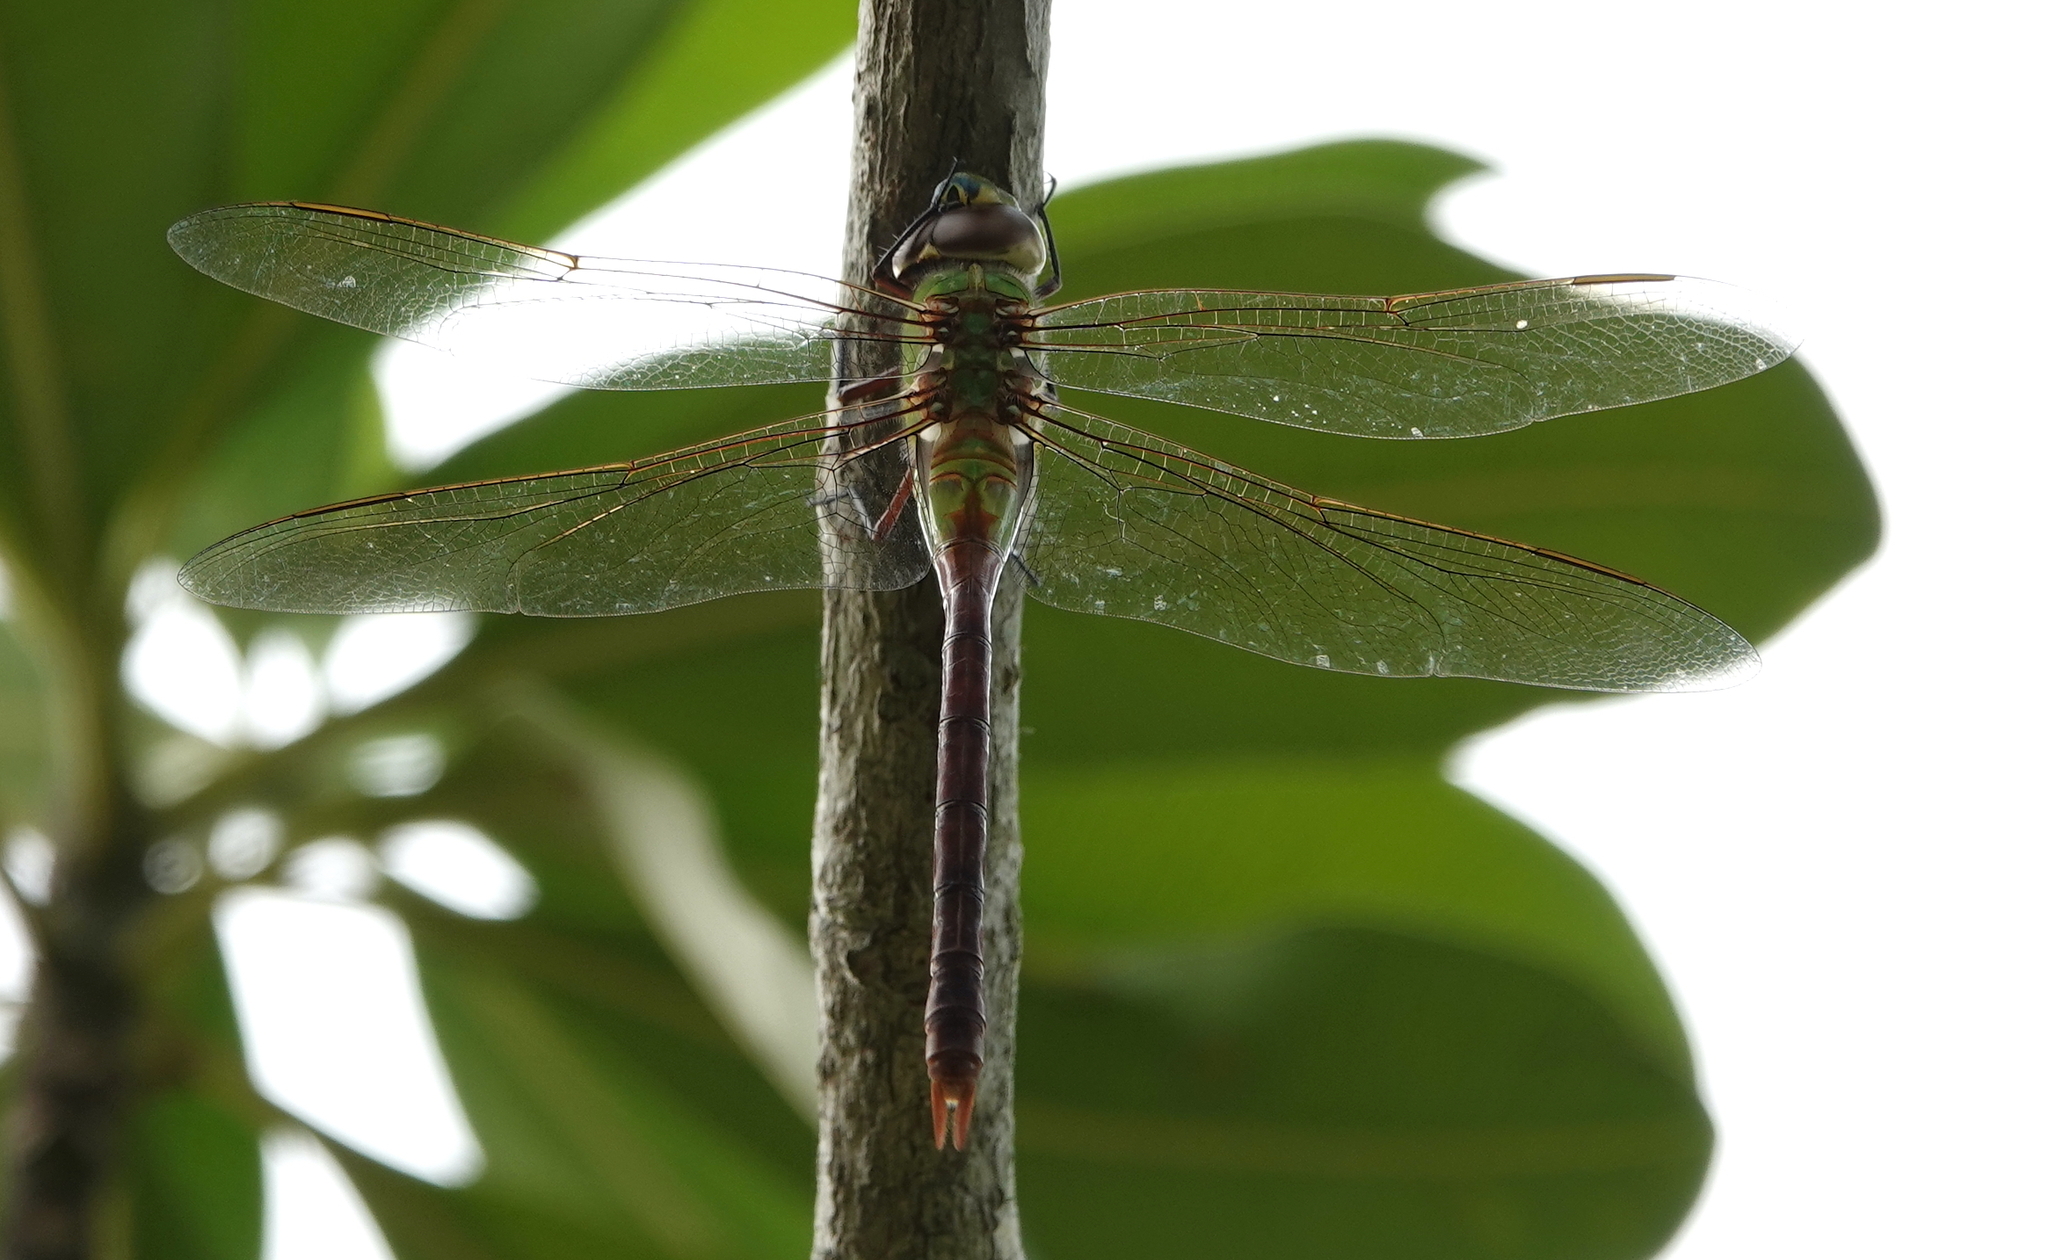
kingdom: Animalia
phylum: Arthropoda
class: Insecta
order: Odonata
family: Aeshnidae
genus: Anax
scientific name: Anax junius
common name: Common green darner
